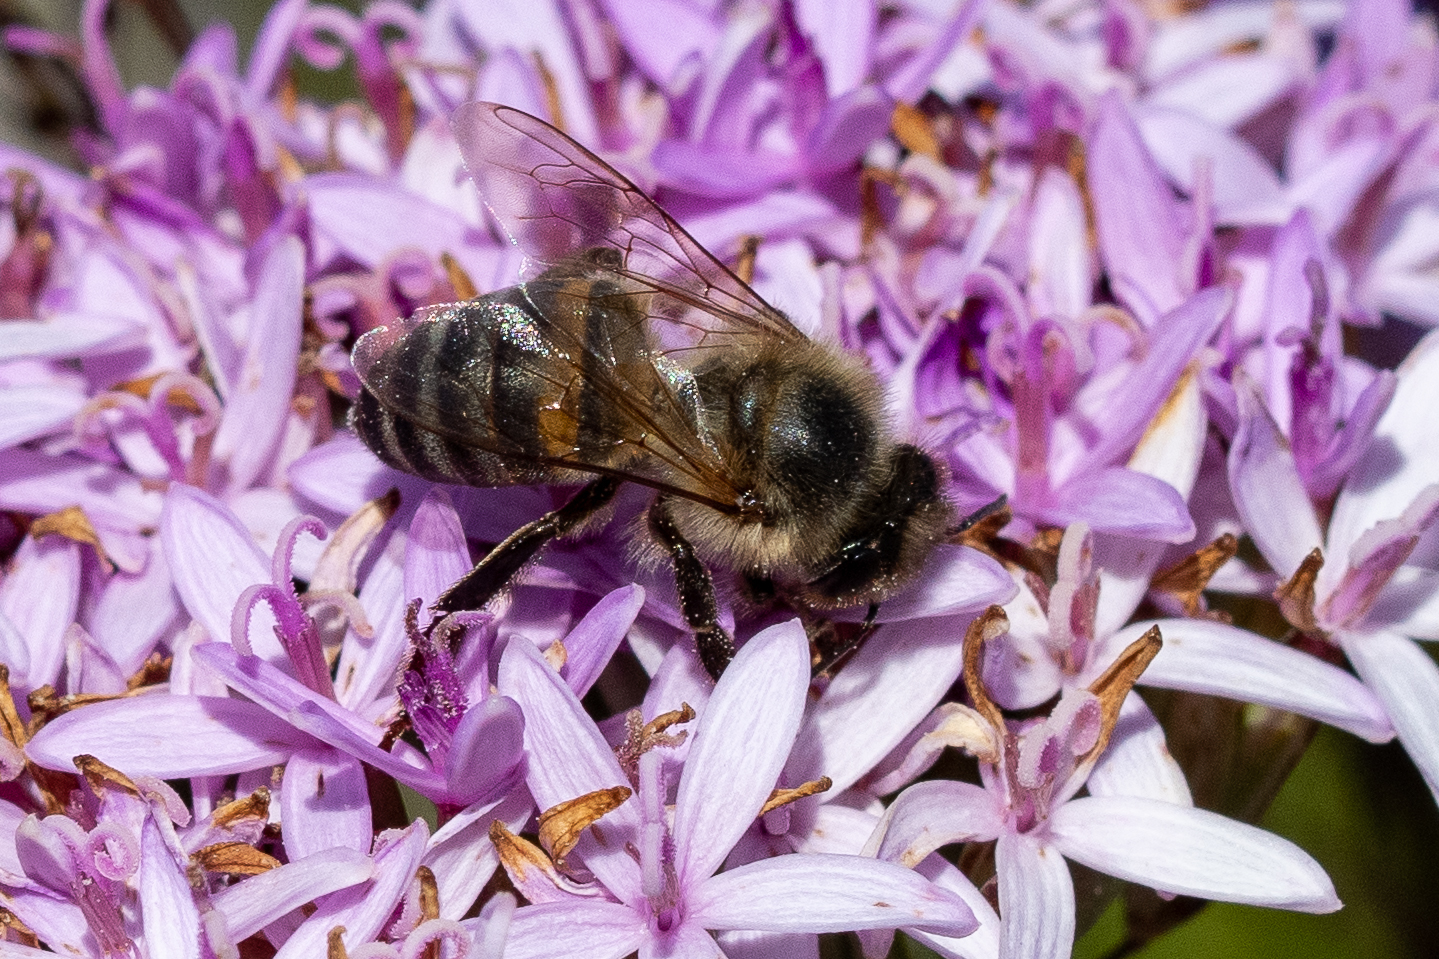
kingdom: Animalia
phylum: Arthropoda
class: Insecta
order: Hymenoptera
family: Apidae
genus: Apis
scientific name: Apis mellifera
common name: Honey bee
